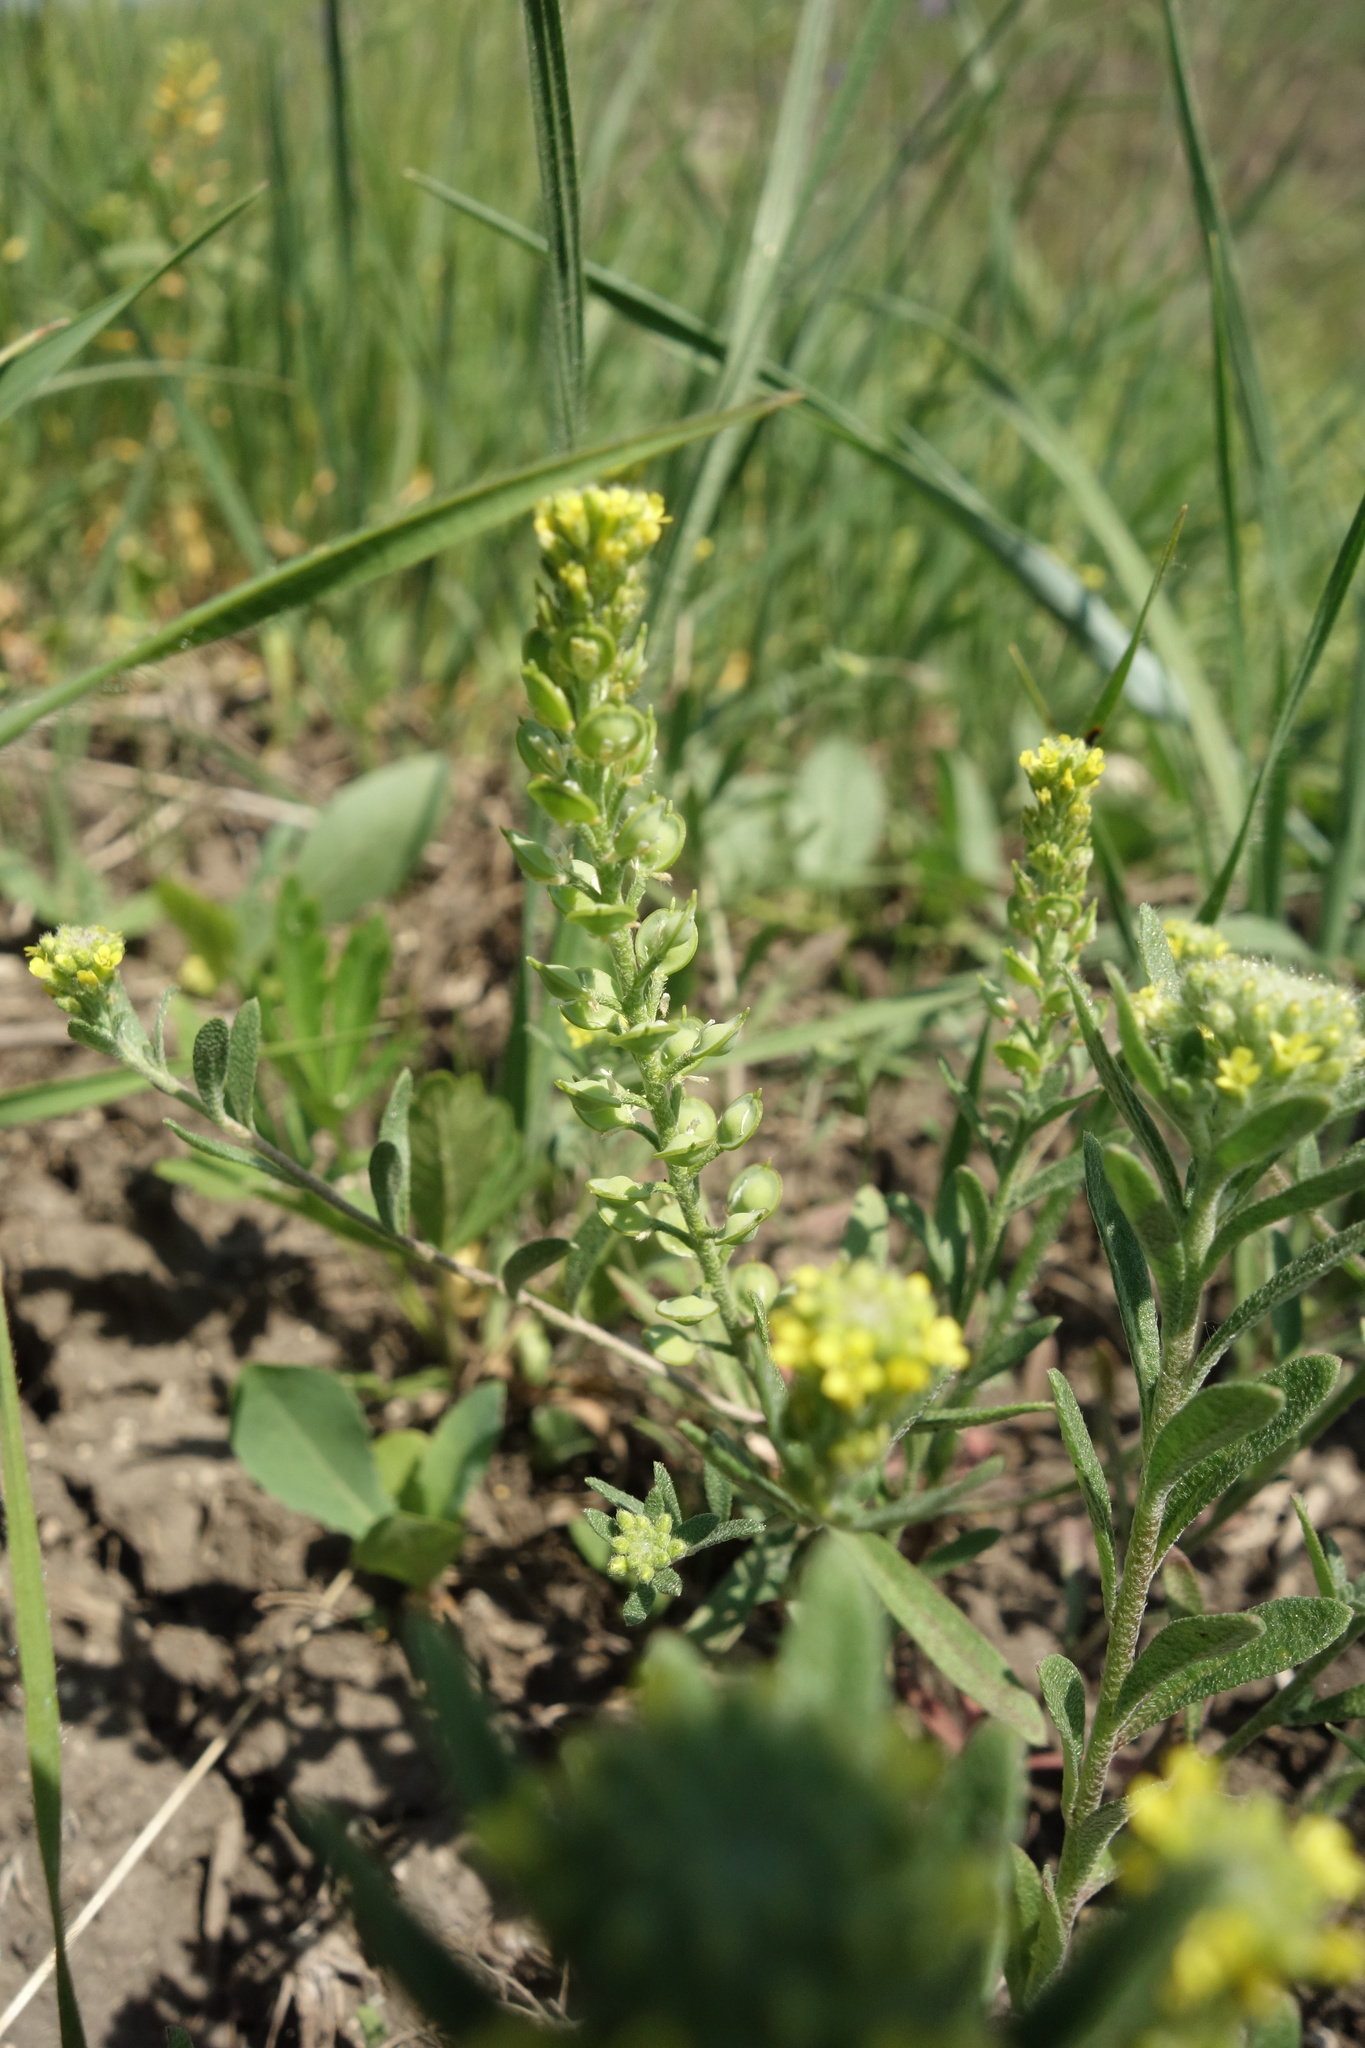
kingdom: Plantae
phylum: Tracheophyta
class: Magnoliopsida
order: Brassicales
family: Brassicaceae
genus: Alyssum
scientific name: Alyssum alyssoides
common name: Small alison
